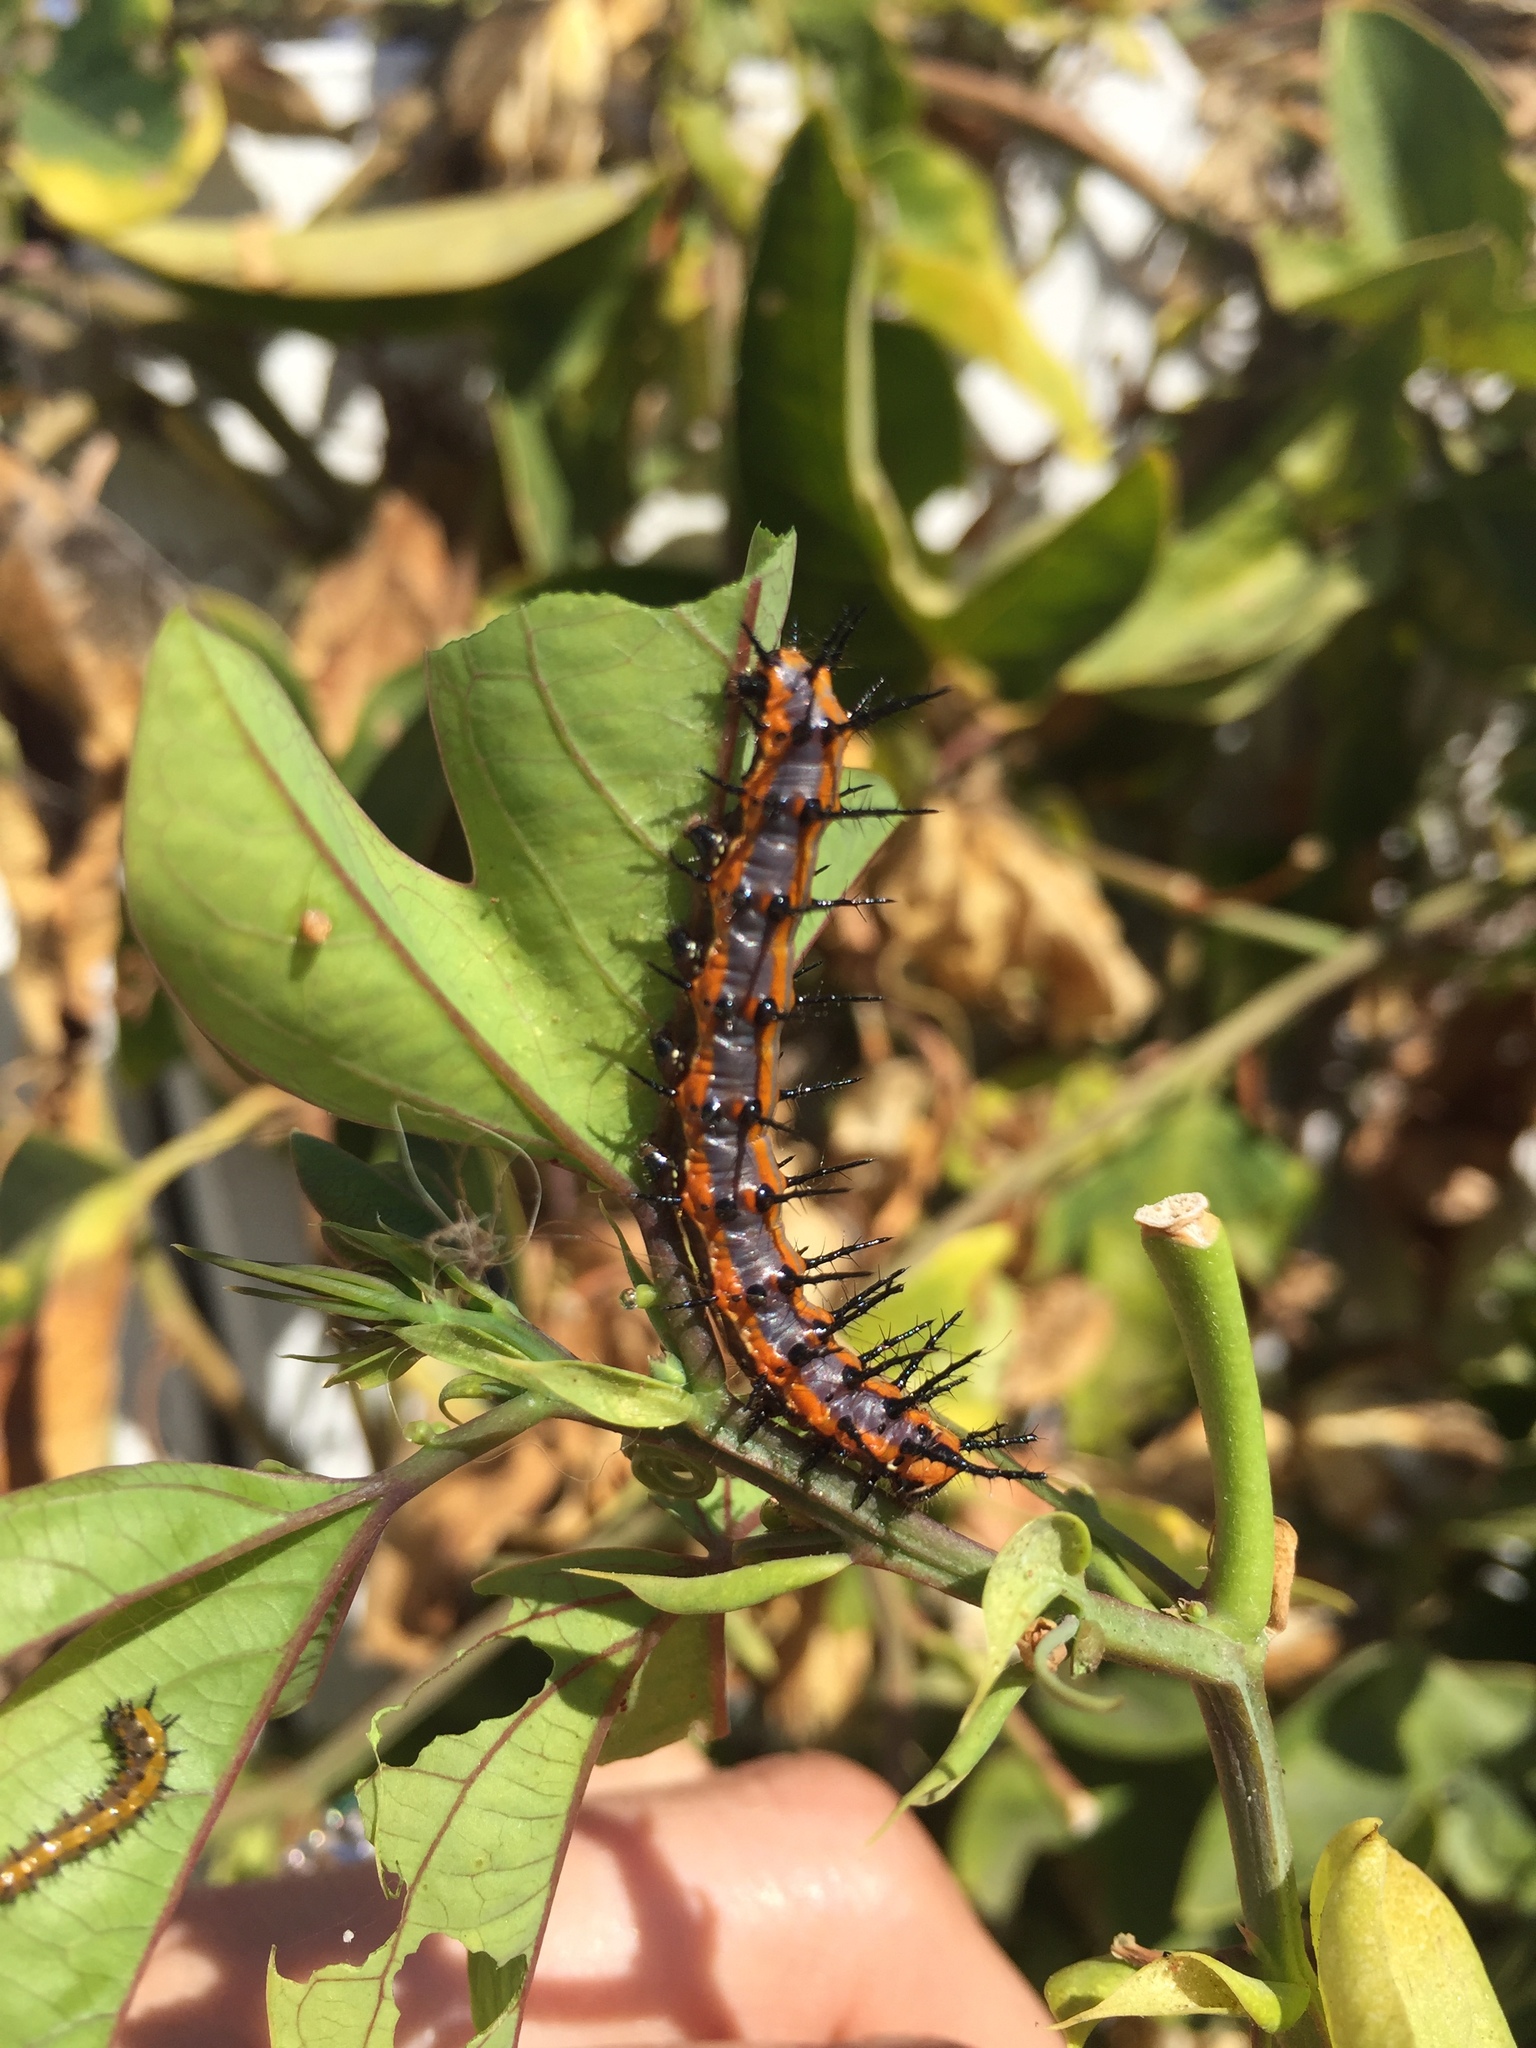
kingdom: Animalia
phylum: Arthropoda
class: Insecta
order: Lepidoptera
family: Nymphalidae
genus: Dione
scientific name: Dione vanillae
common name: Gulf fritillary
